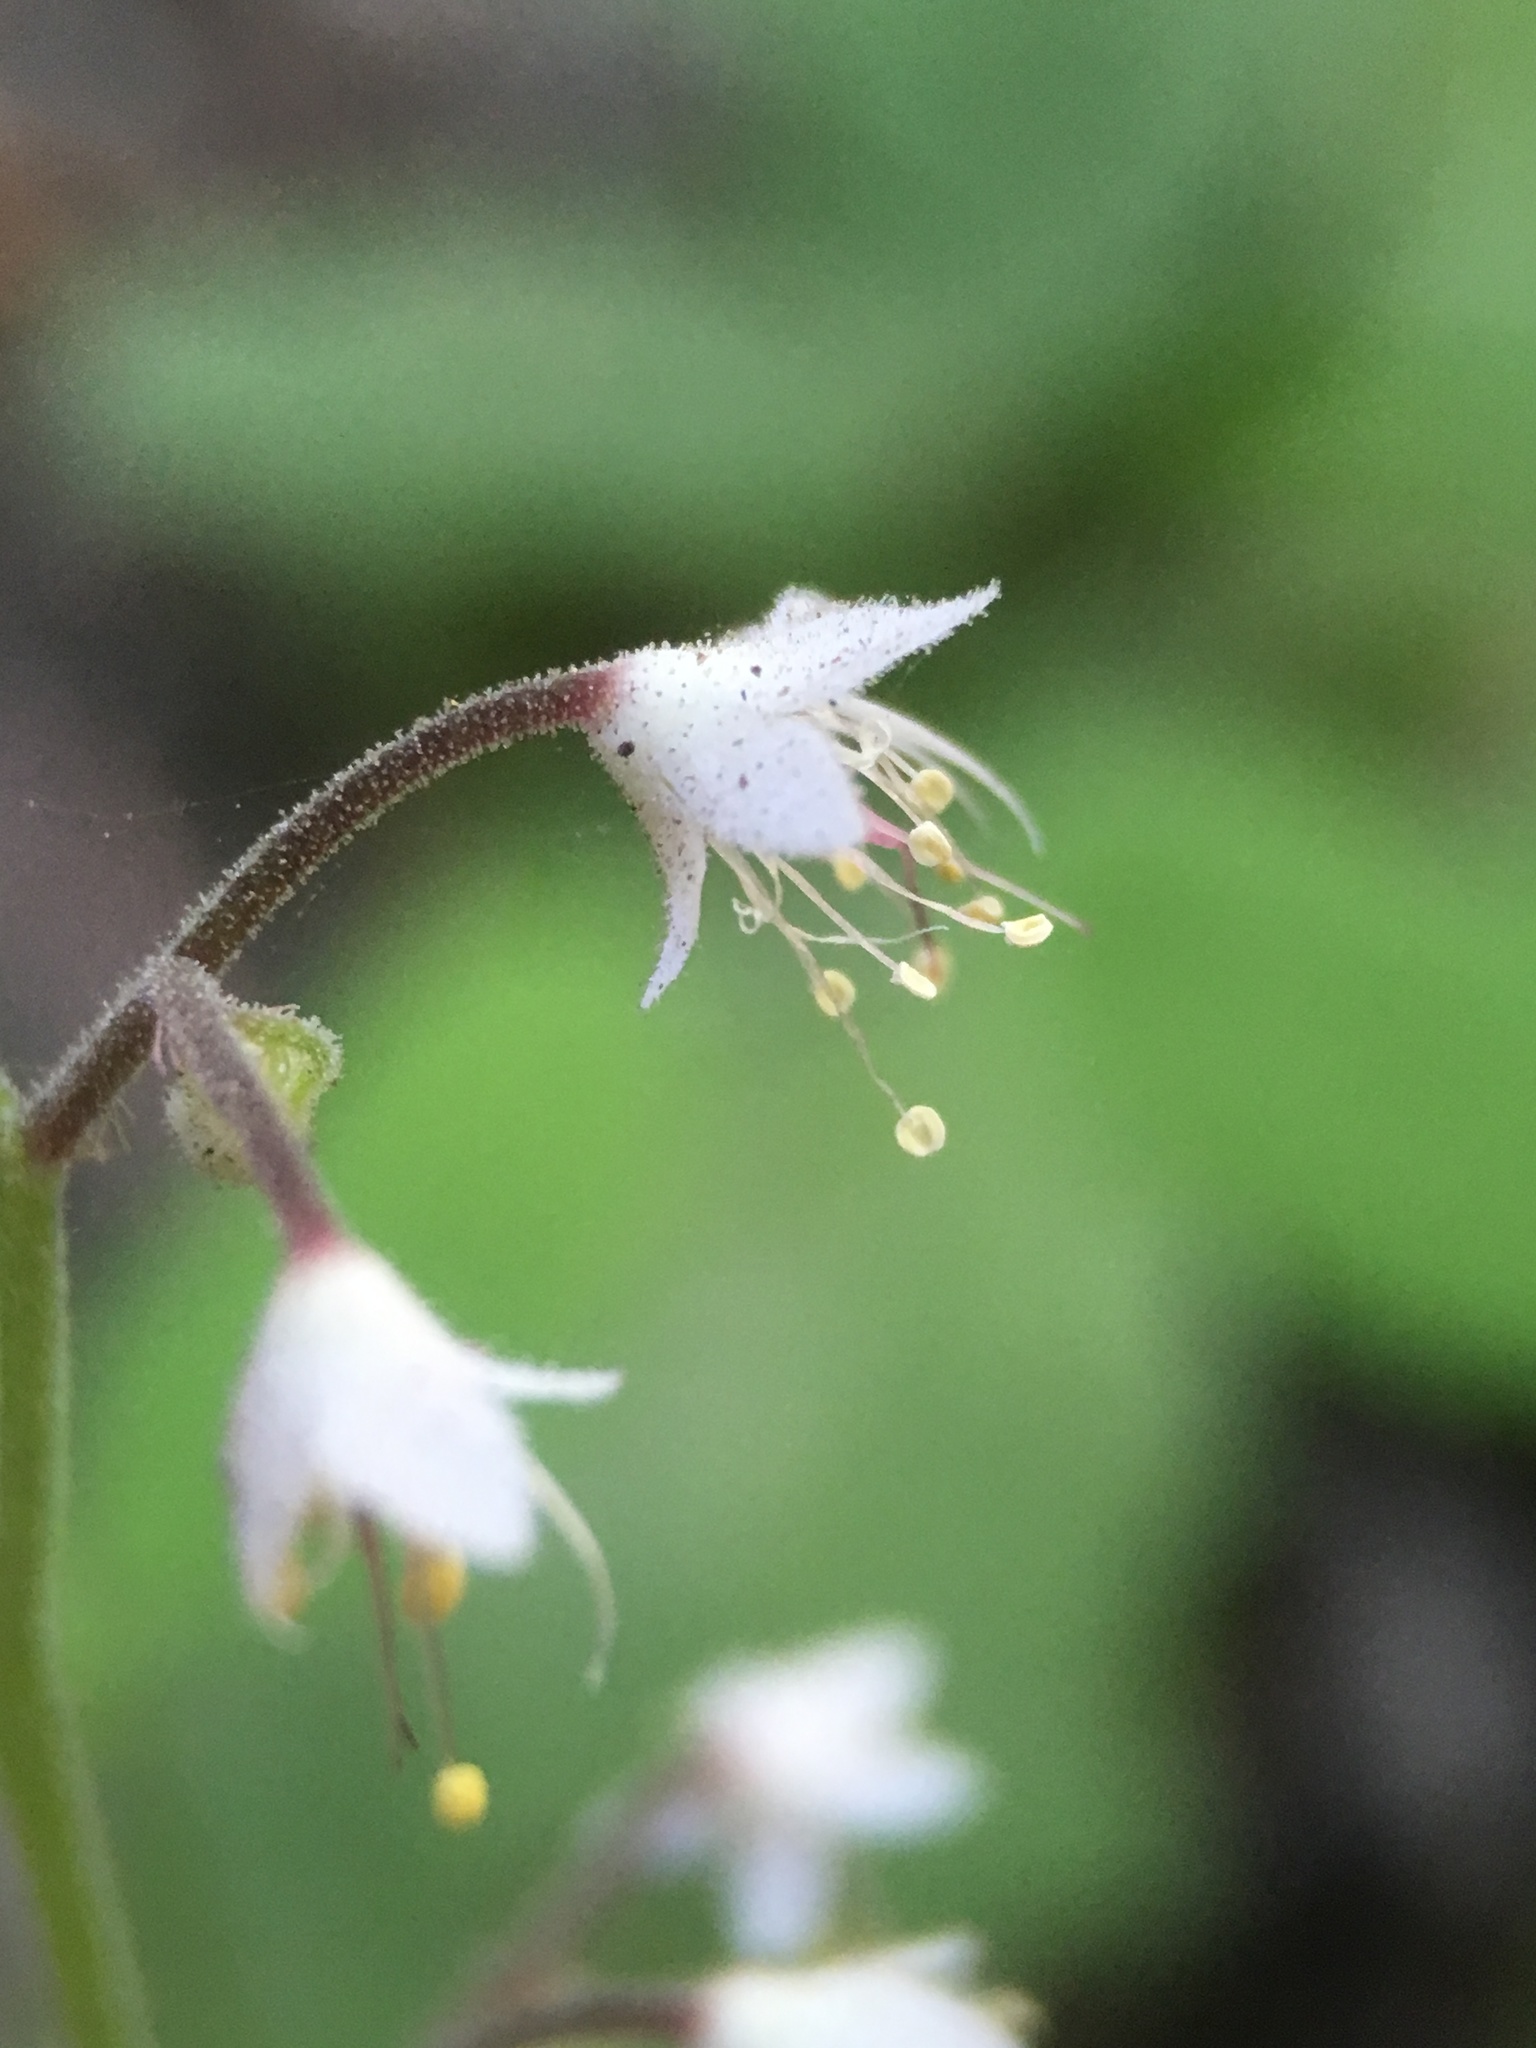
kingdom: Plantae
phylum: Tracheophyta
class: Magnoliopsida
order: Saxifragales
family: Saxifragaceae
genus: Tiarella
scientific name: Tiarella trifoliata
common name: Sugar-scoop
